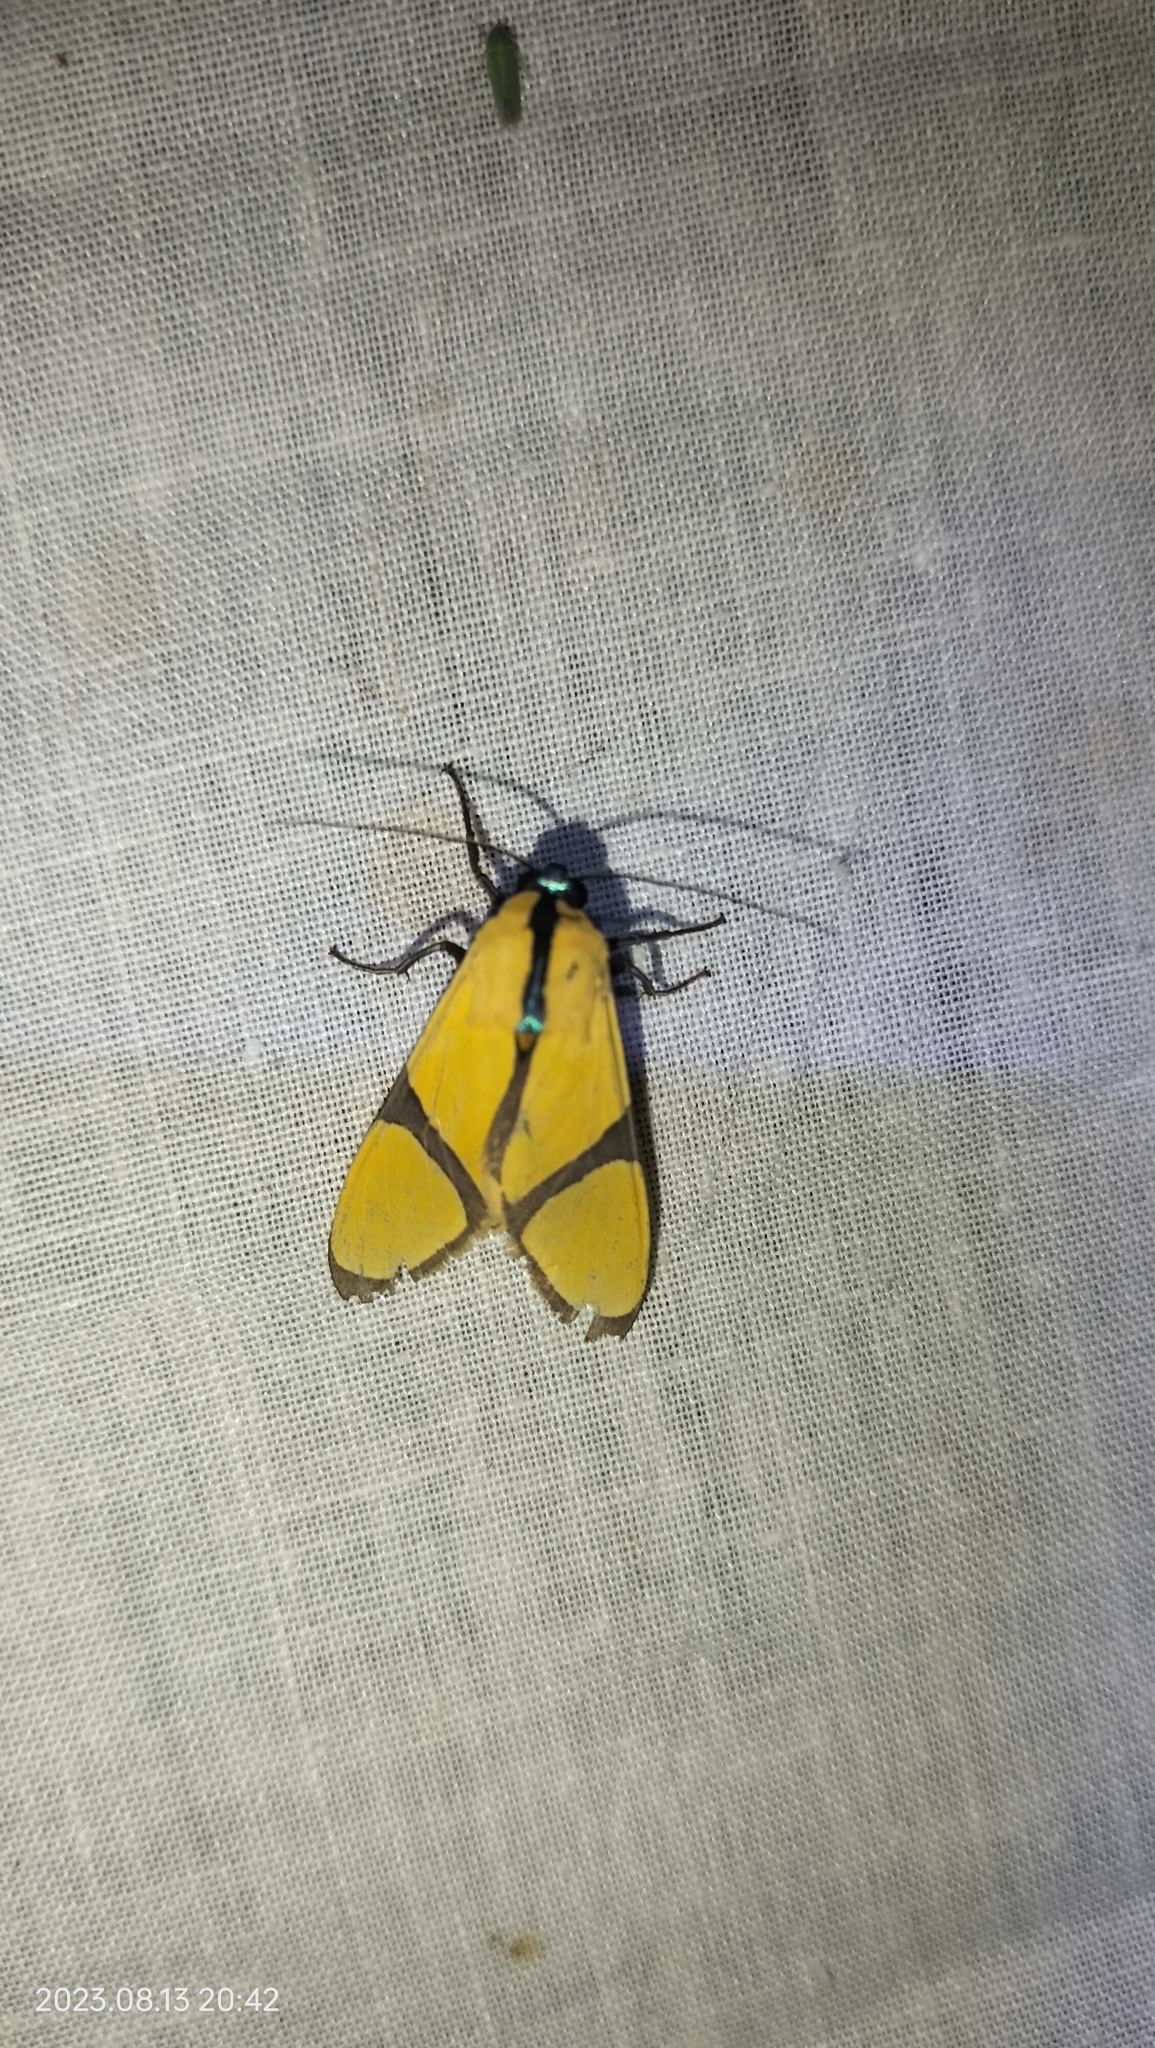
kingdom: Animalia
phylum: Arthropoda
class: Insecta
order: Lepidoptera
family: Erebidae
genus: Ormetica
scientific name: Ormetica ameoides
